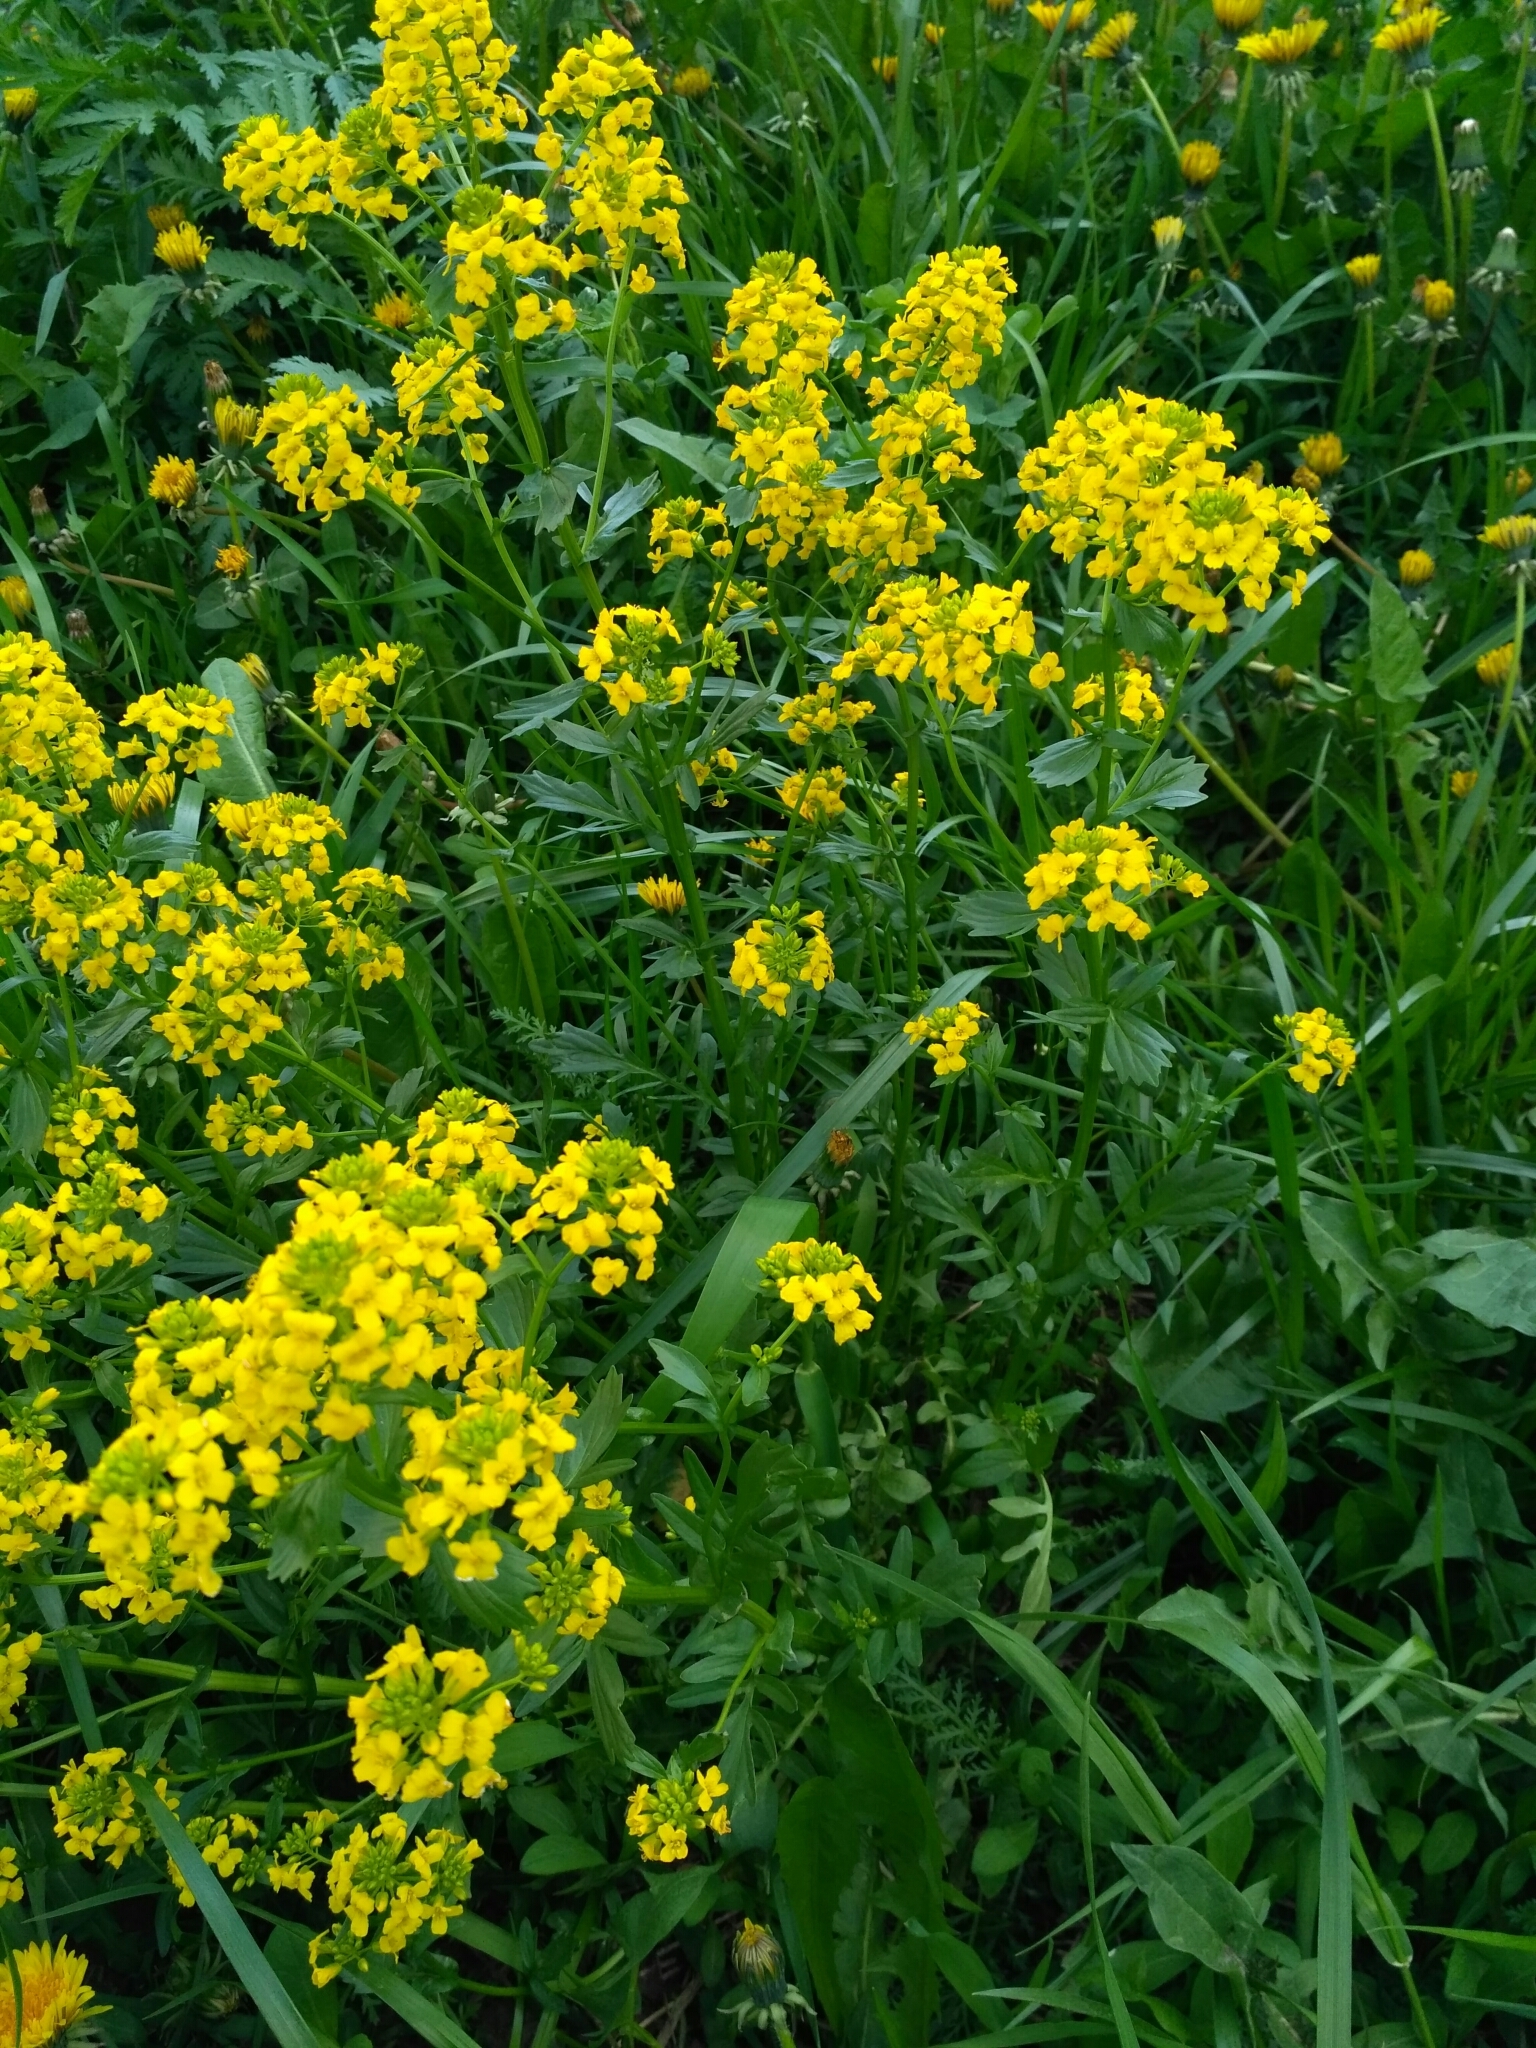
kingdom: Plantae
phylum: Tracheophyta
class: Magnoliopsida
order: Brassicales
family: Brassicaceae
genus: Barbarea
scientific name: Barbarea vulgaris
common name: Cressy-greens
